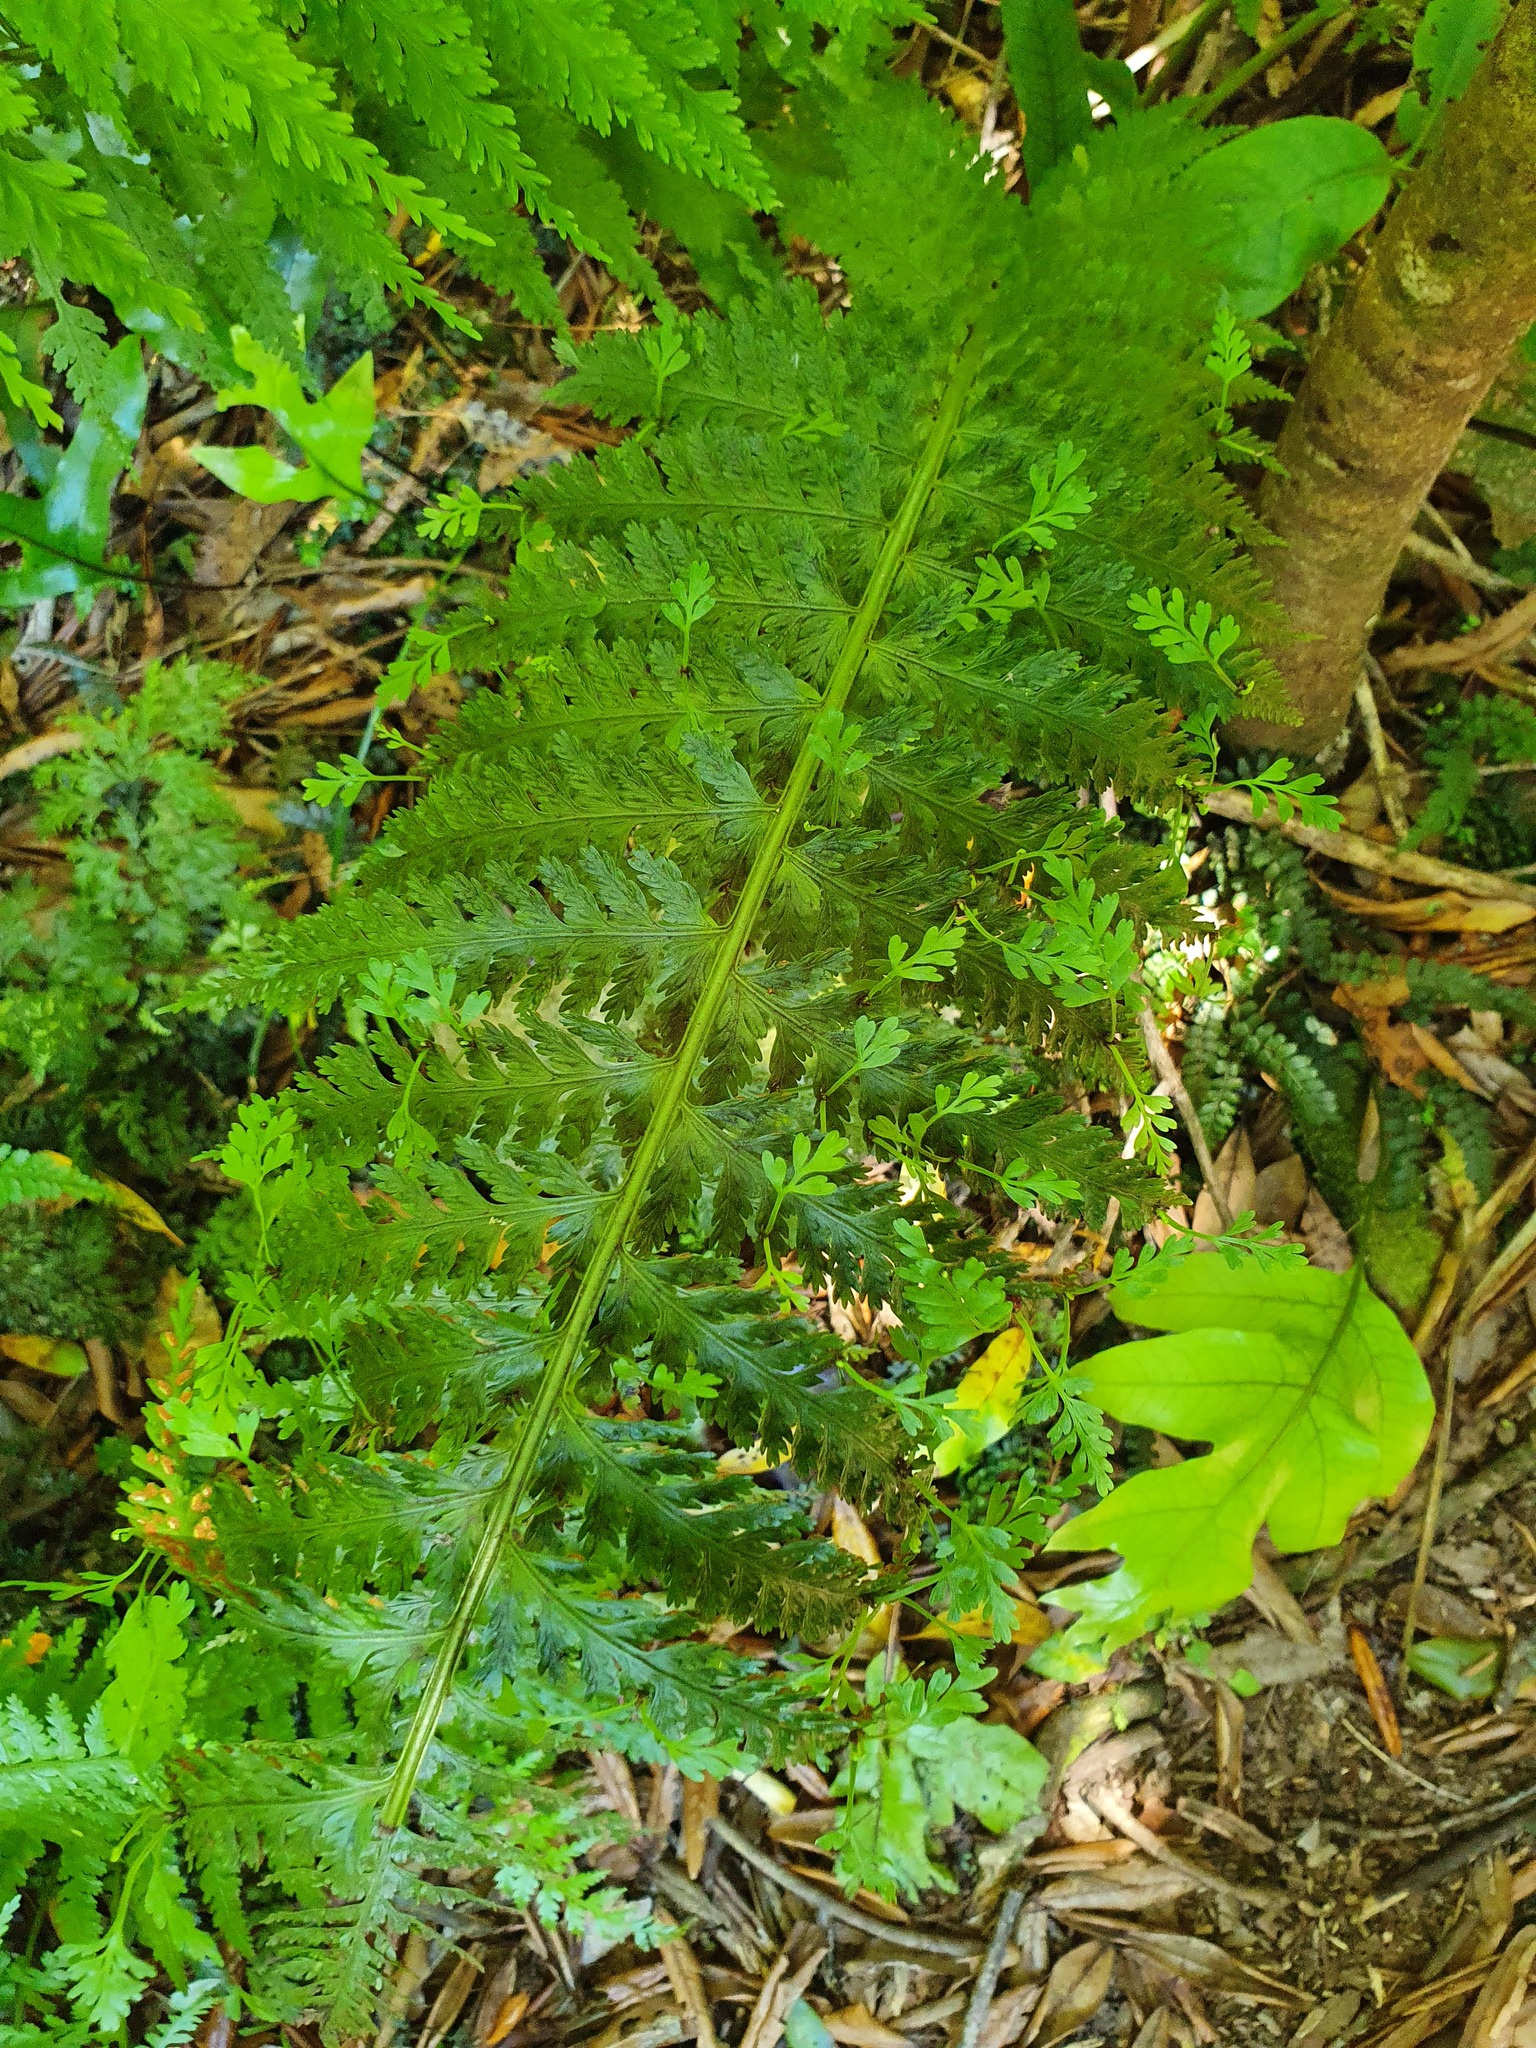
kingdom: Plantae
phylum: Tracheophyta
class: Polypodiopsida
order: Polypodiales
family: Aspleniaceae
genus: Asplenium
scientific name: Asplenium bulbiferum
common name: Mother fern
